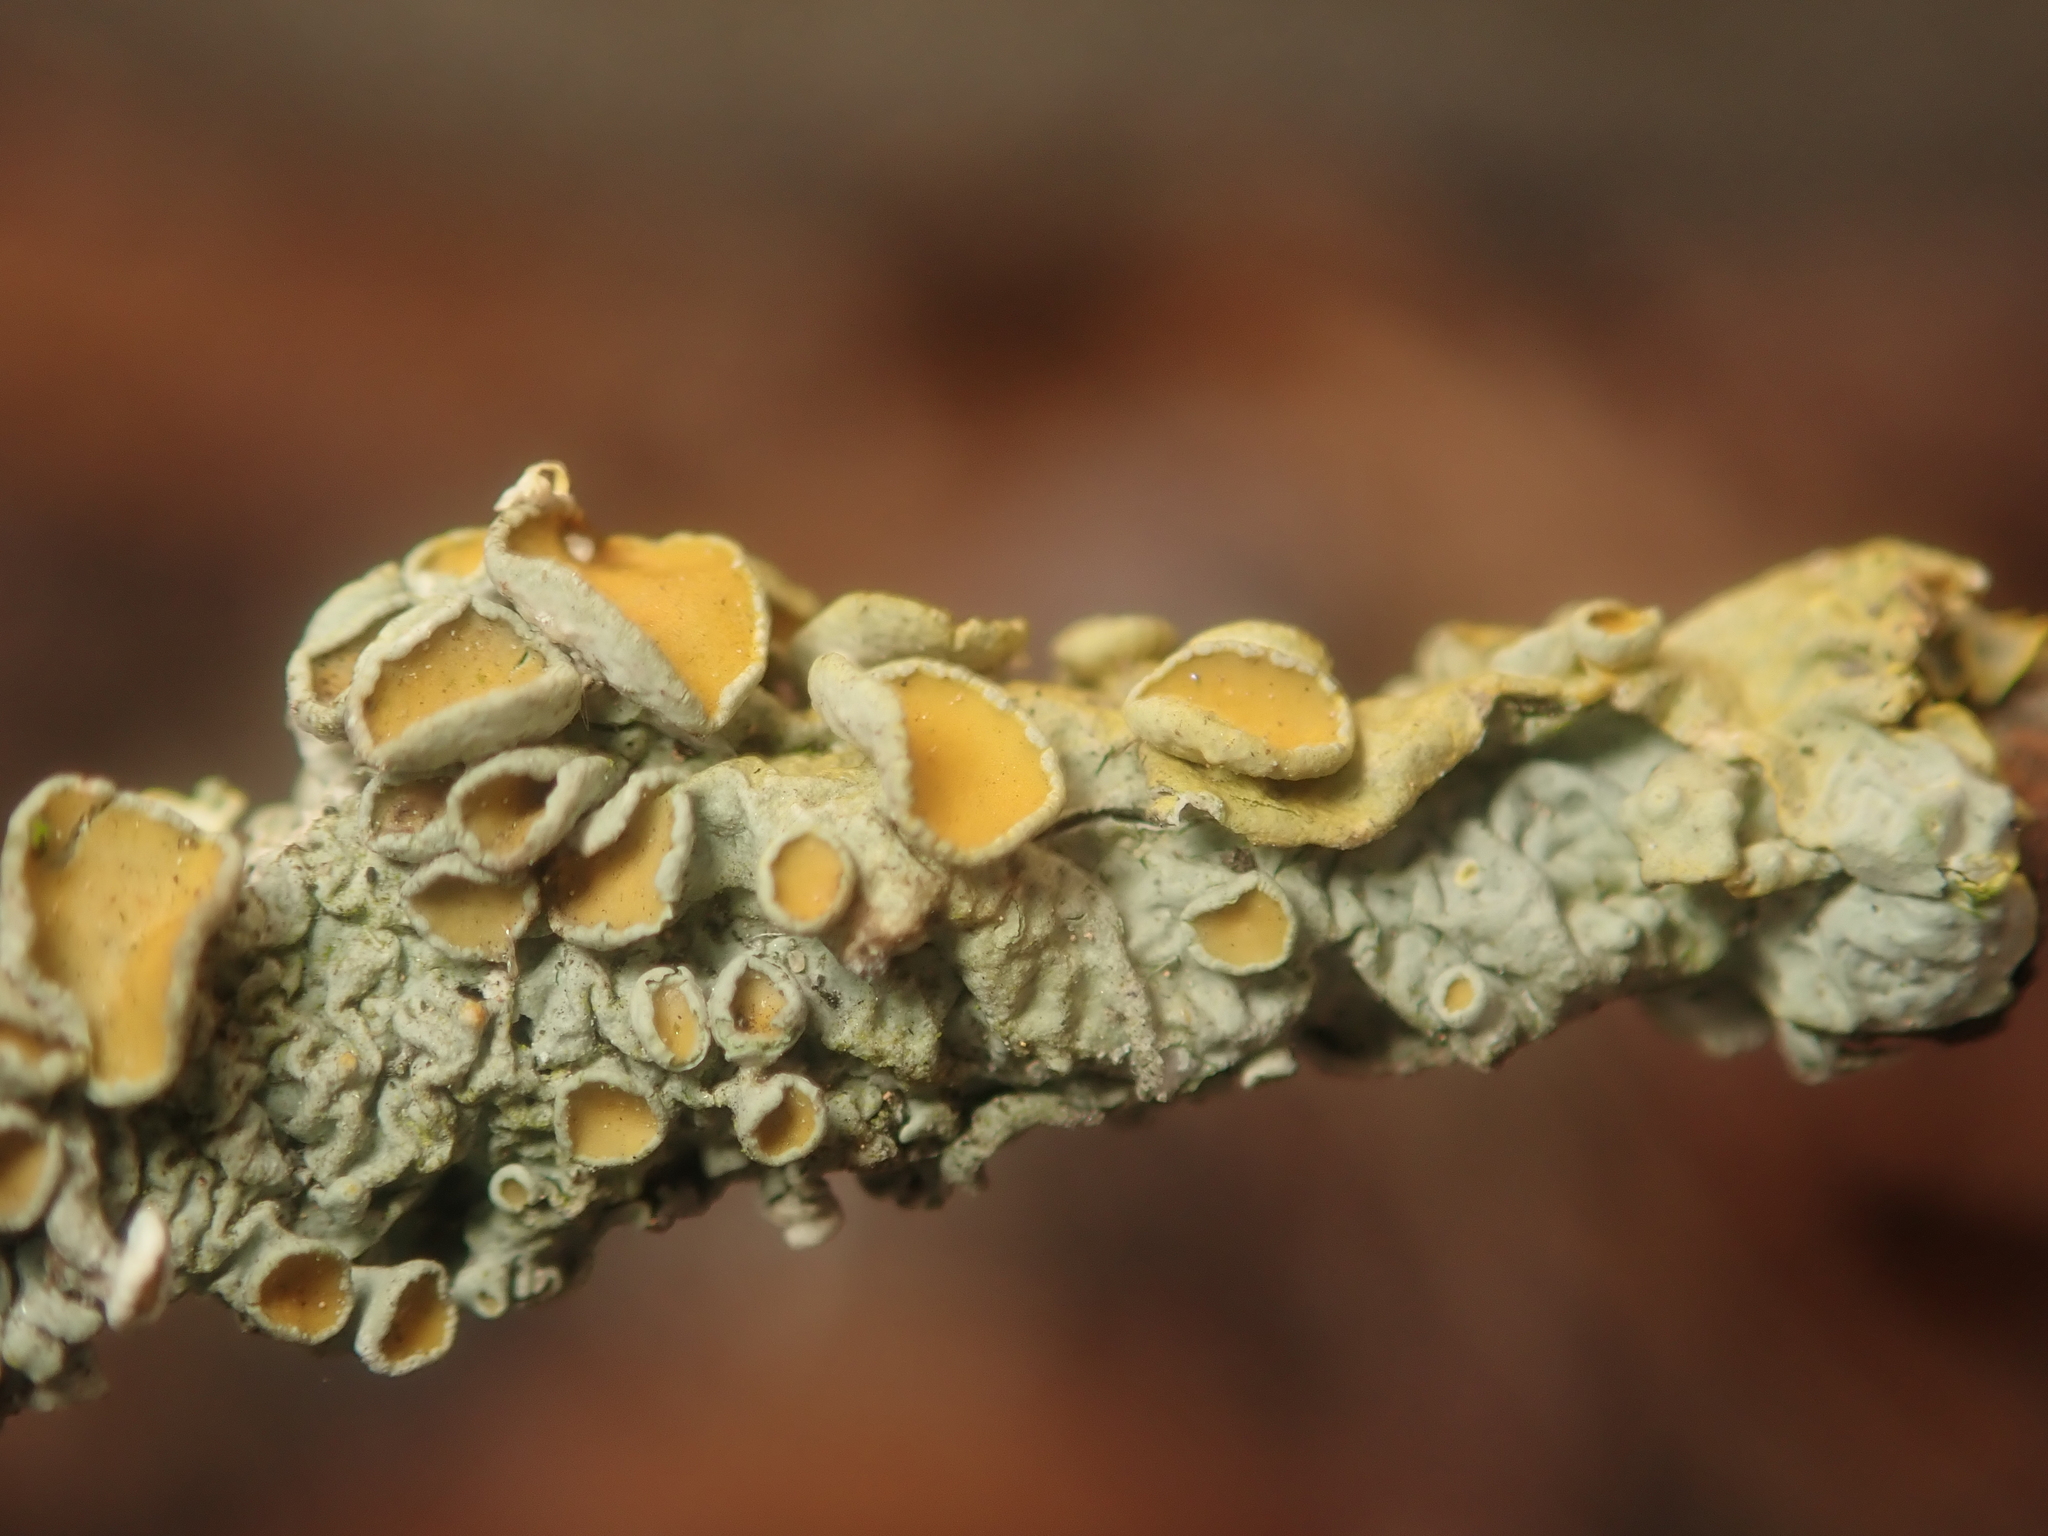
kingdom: Fungi
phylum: Ascomycota
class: Lecanoromycetes
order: Teloschistales
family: Teloschistaceae
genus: Xanthoria
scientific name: Xanthoria parietina
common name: Common orange lichen
